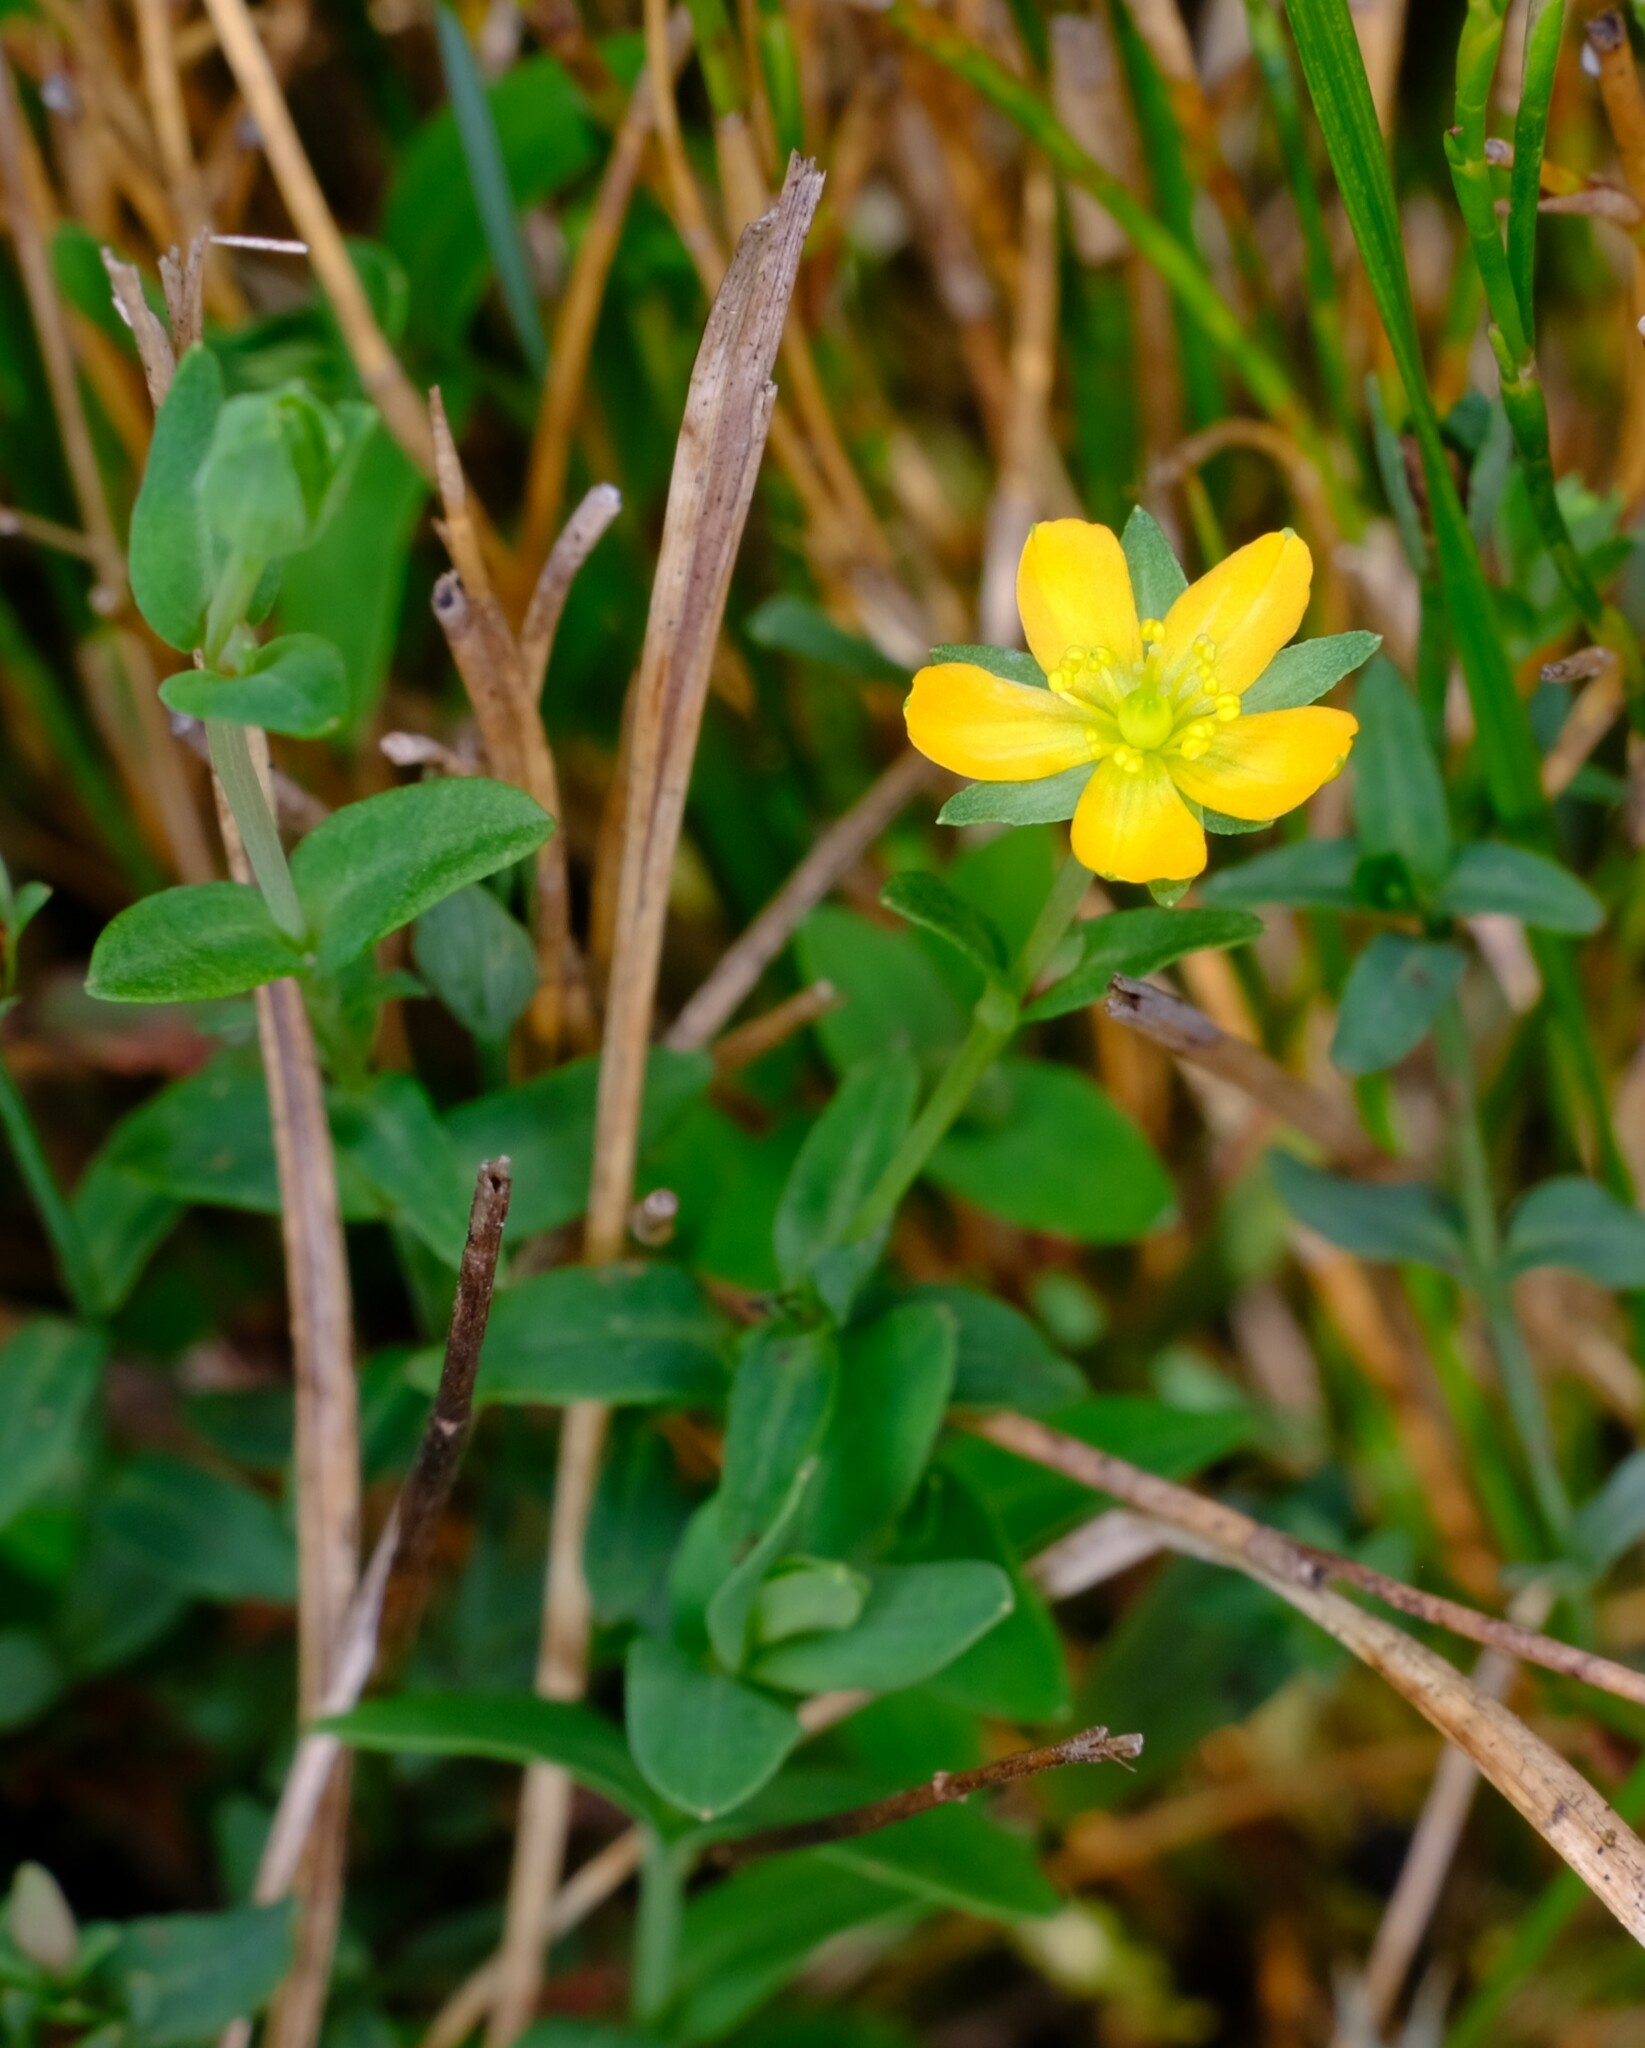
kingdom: Plantae
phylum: Tracheophyta
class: Magnoliopsida
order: Malpighiales
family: Hypericaceae
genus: Hypericum
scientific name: Hypericum gramineum
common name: Grassy st. johnswort
